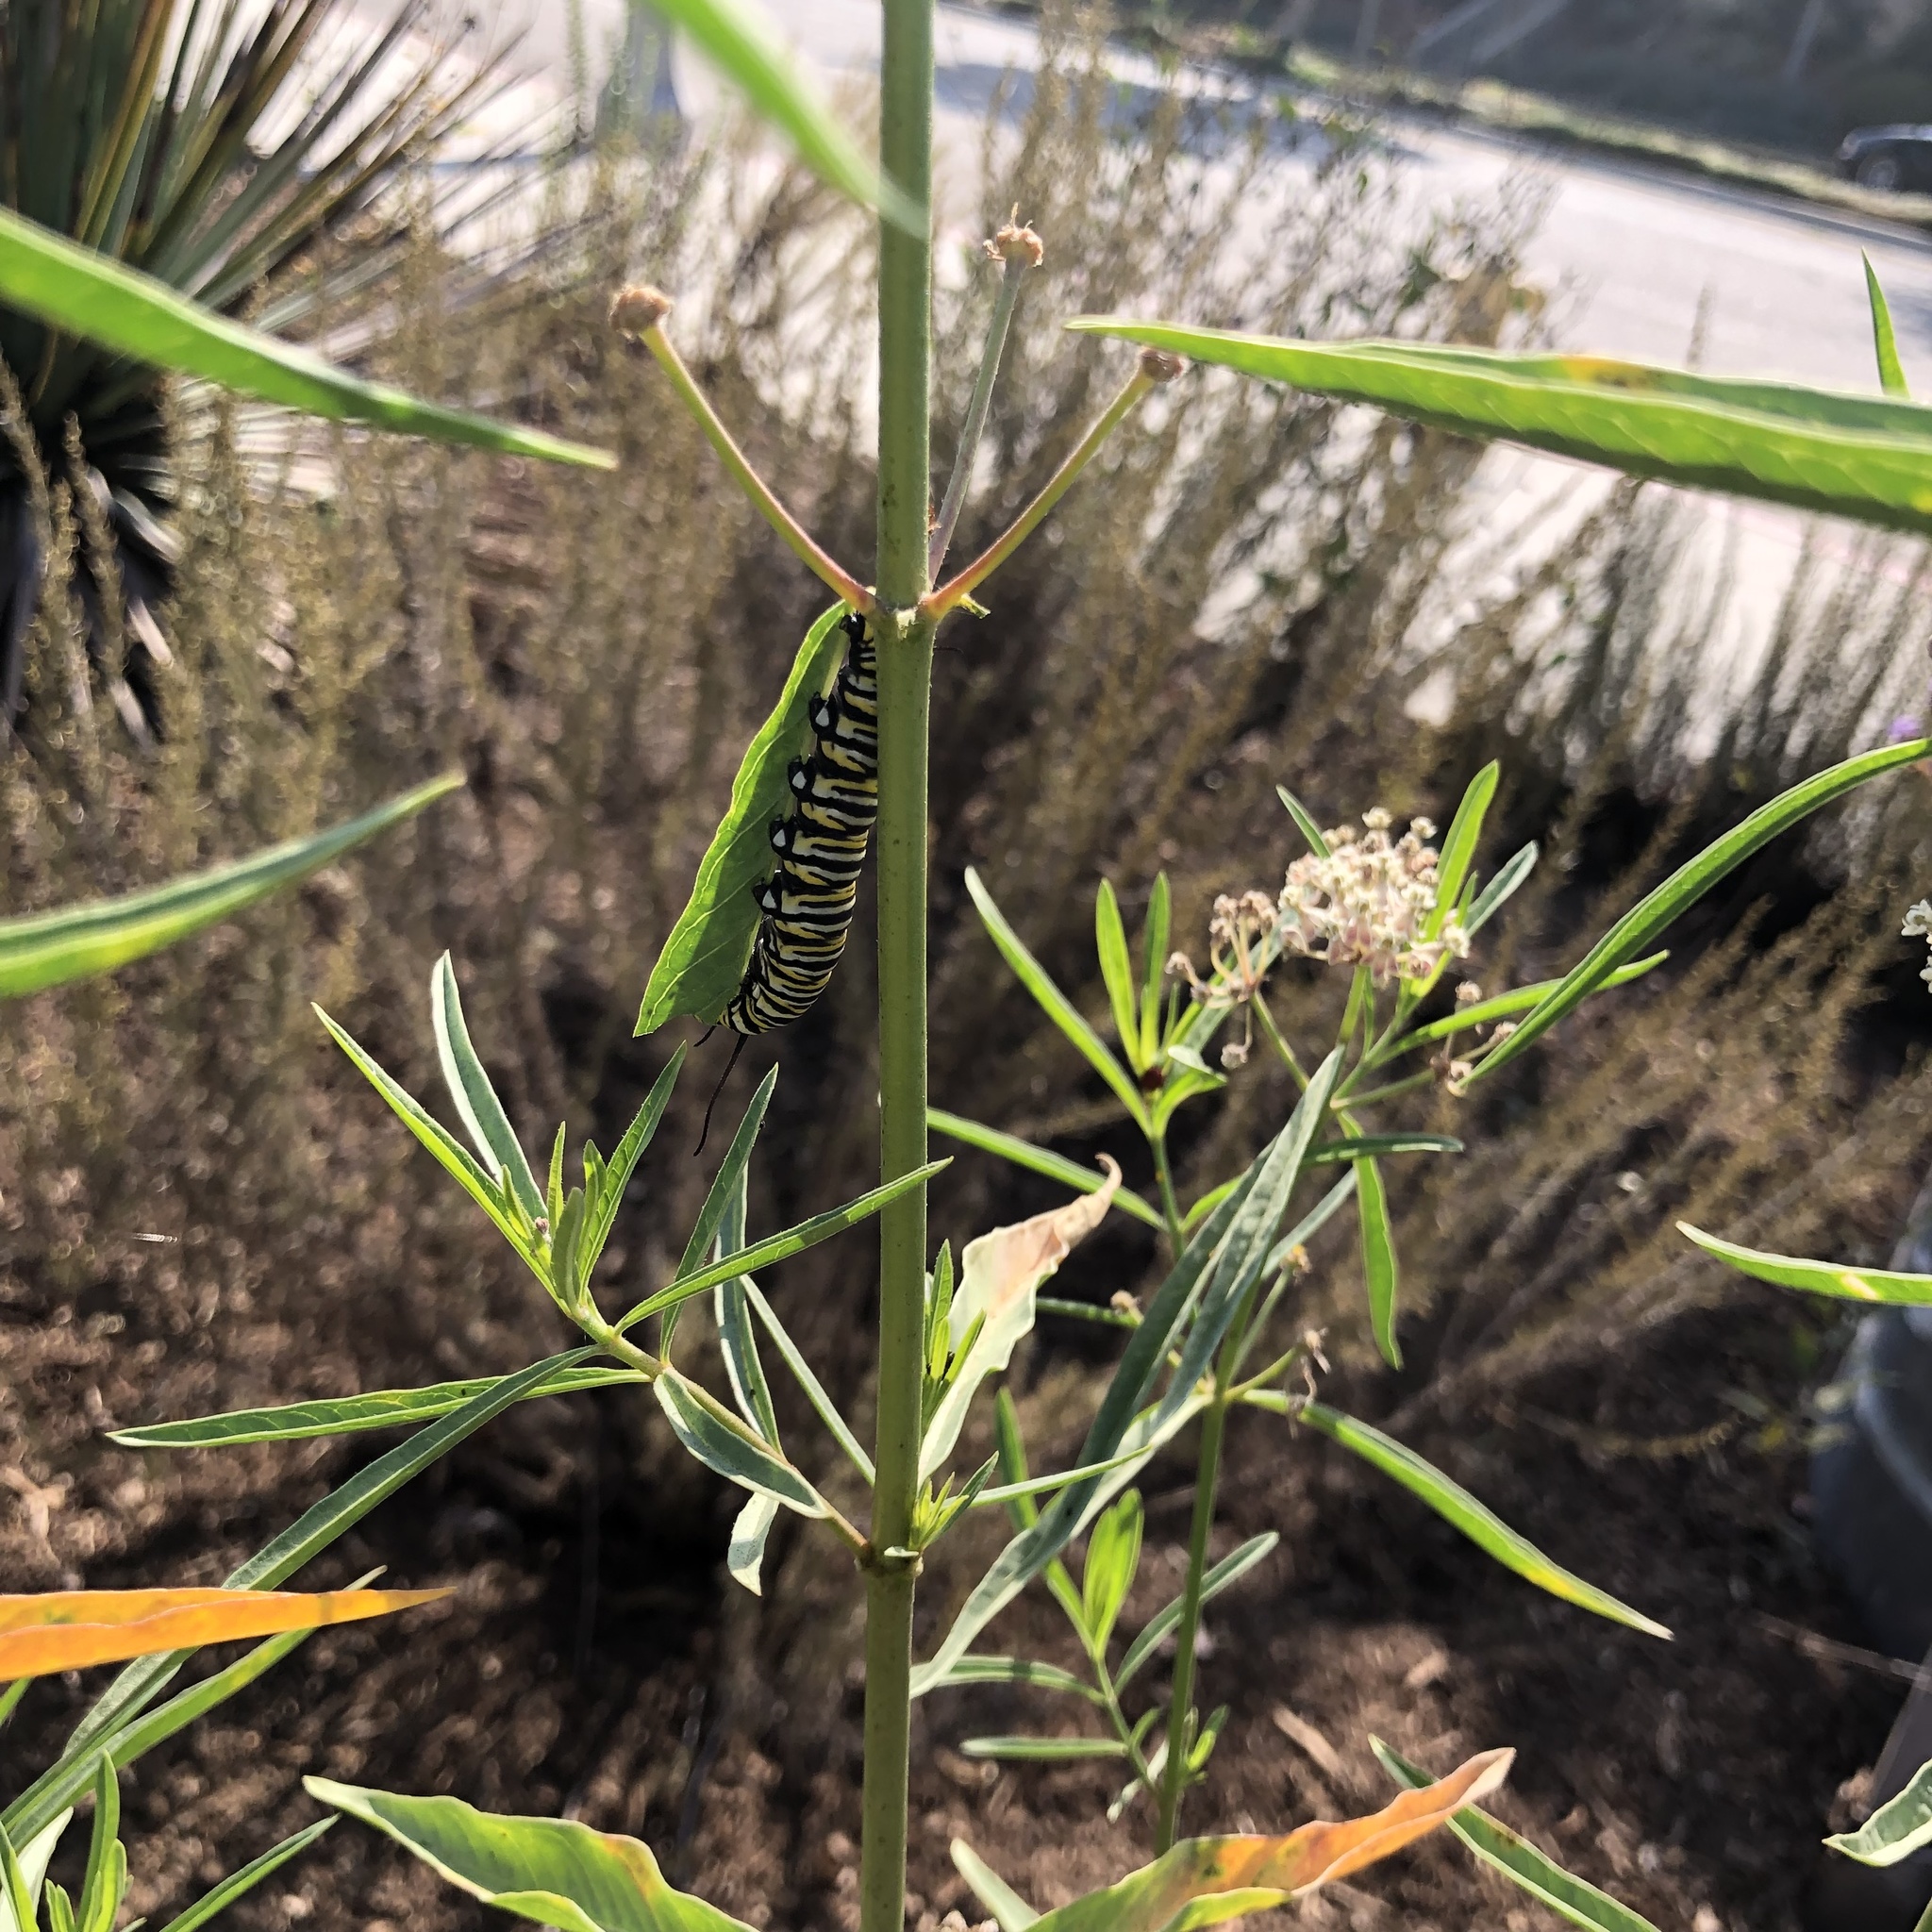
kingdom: Animalia
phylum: Arthropoda
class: Insecta
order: Lepidoptera
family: Nymphalidae
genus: Danaus
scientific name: Danaus plexippus
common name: Monarch
